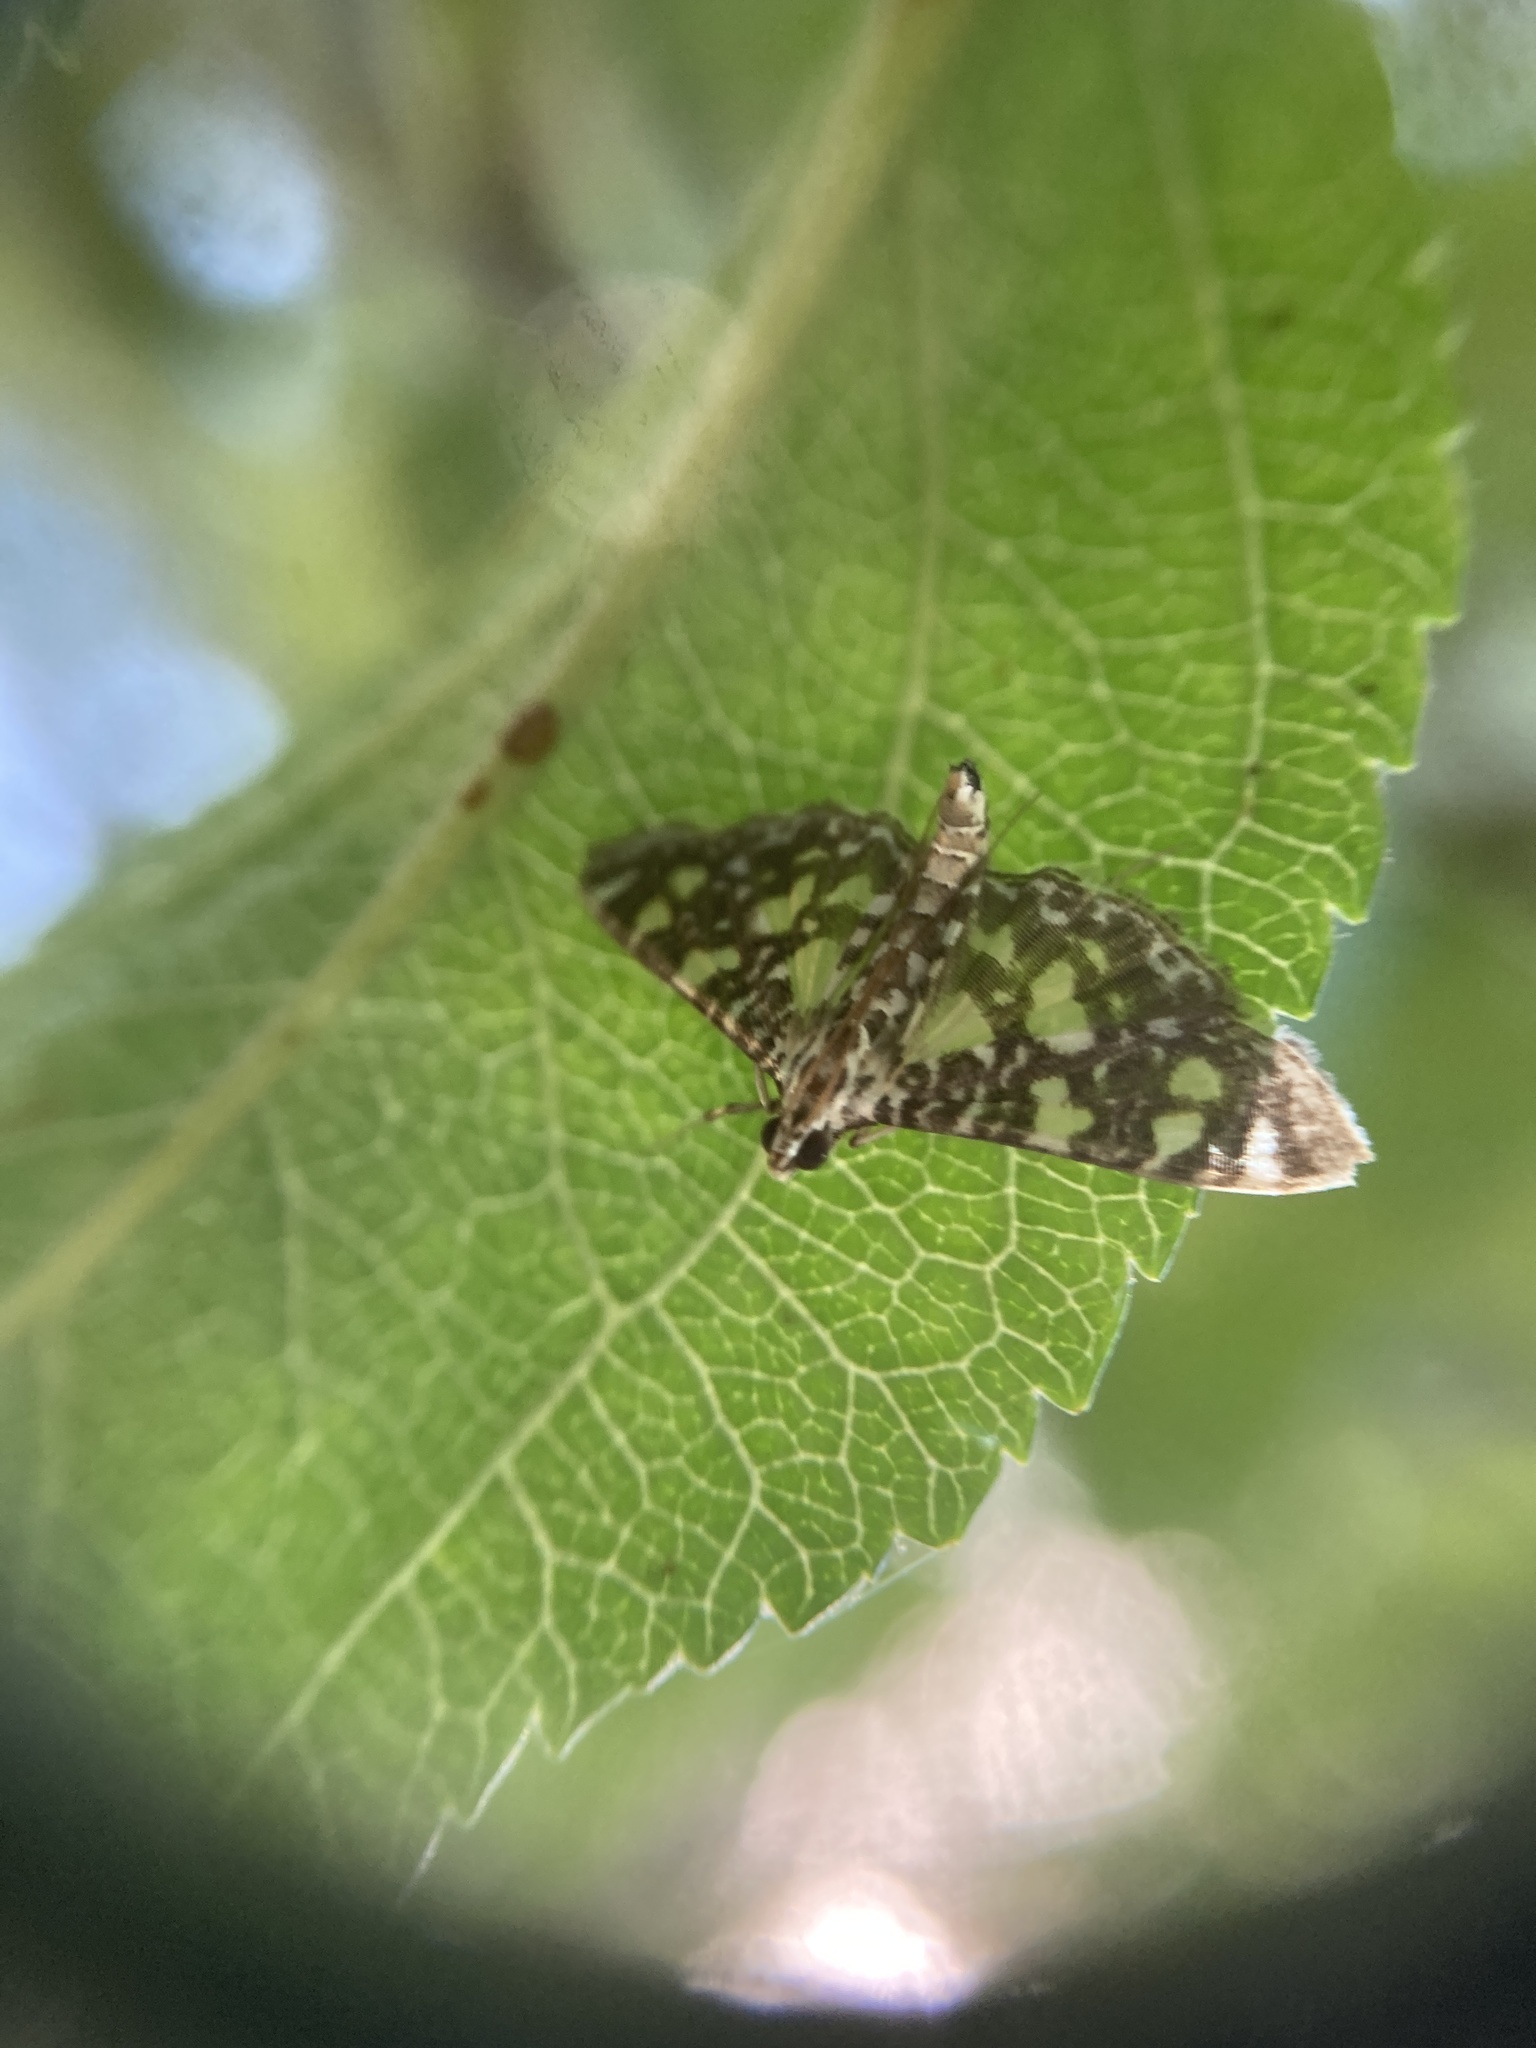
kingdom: Animalia
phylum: Arthropoda
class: Insecta
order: Lepidoptera
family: Crambidae
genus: Glyphodes
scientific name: Glyphodes onychinalis
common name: Swan plant moth
